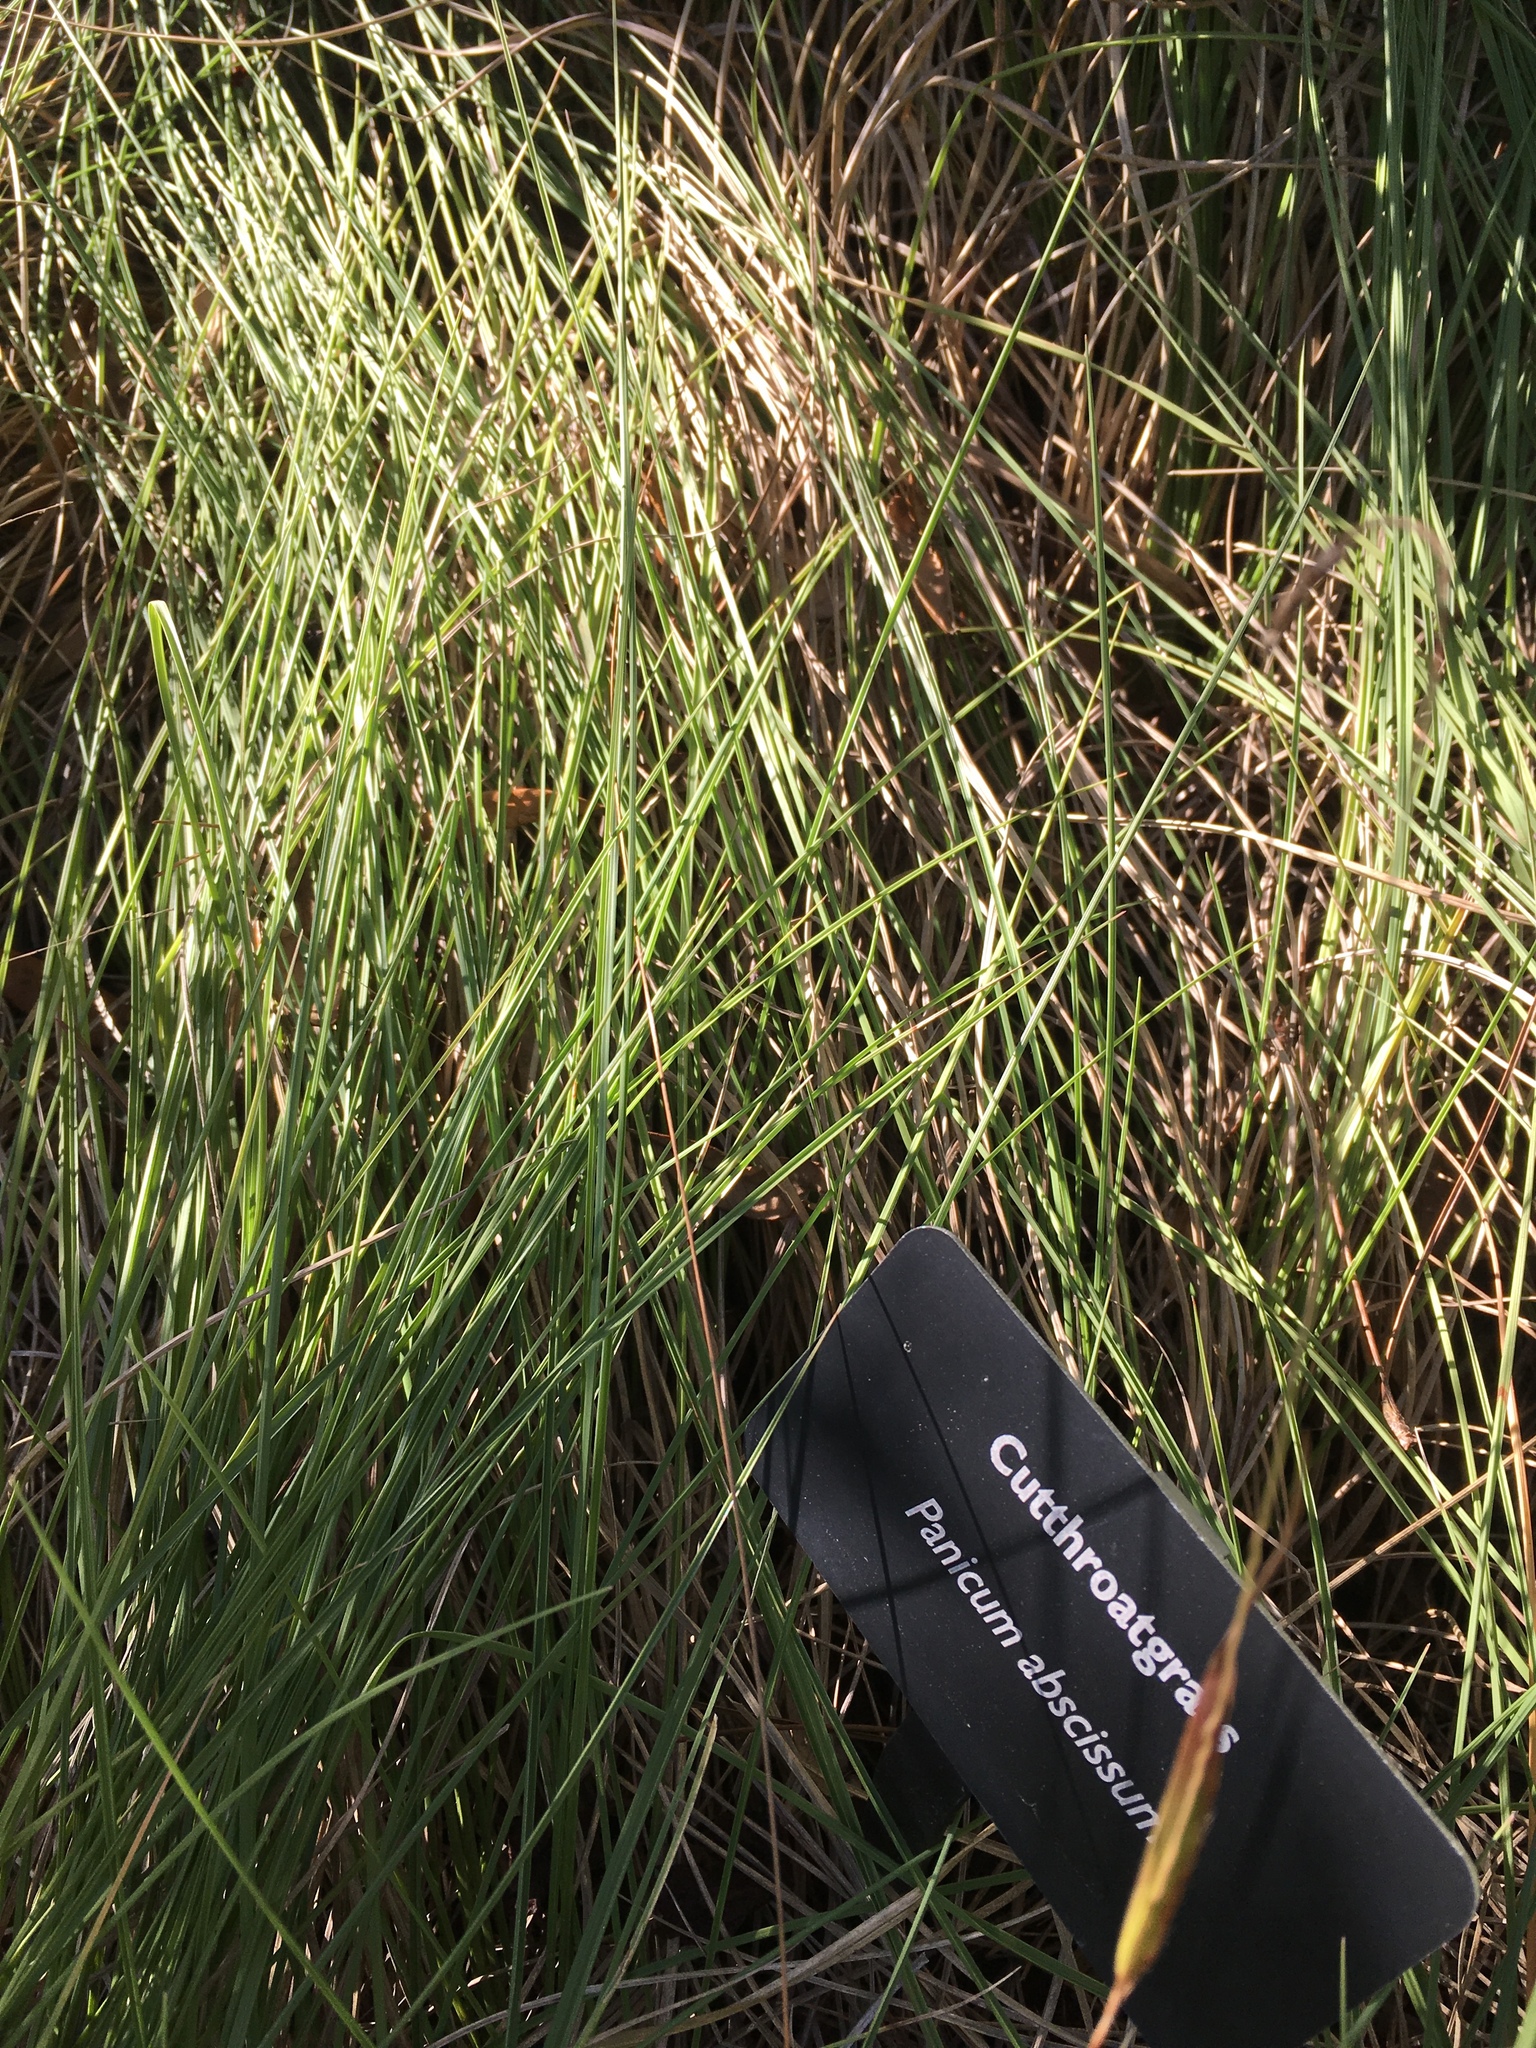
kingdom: Plantae
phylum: Tracheophyta
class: Liliopsida
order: Poales
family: Poaceae
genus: Coleataenia
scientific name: Coleataenia abscissa
